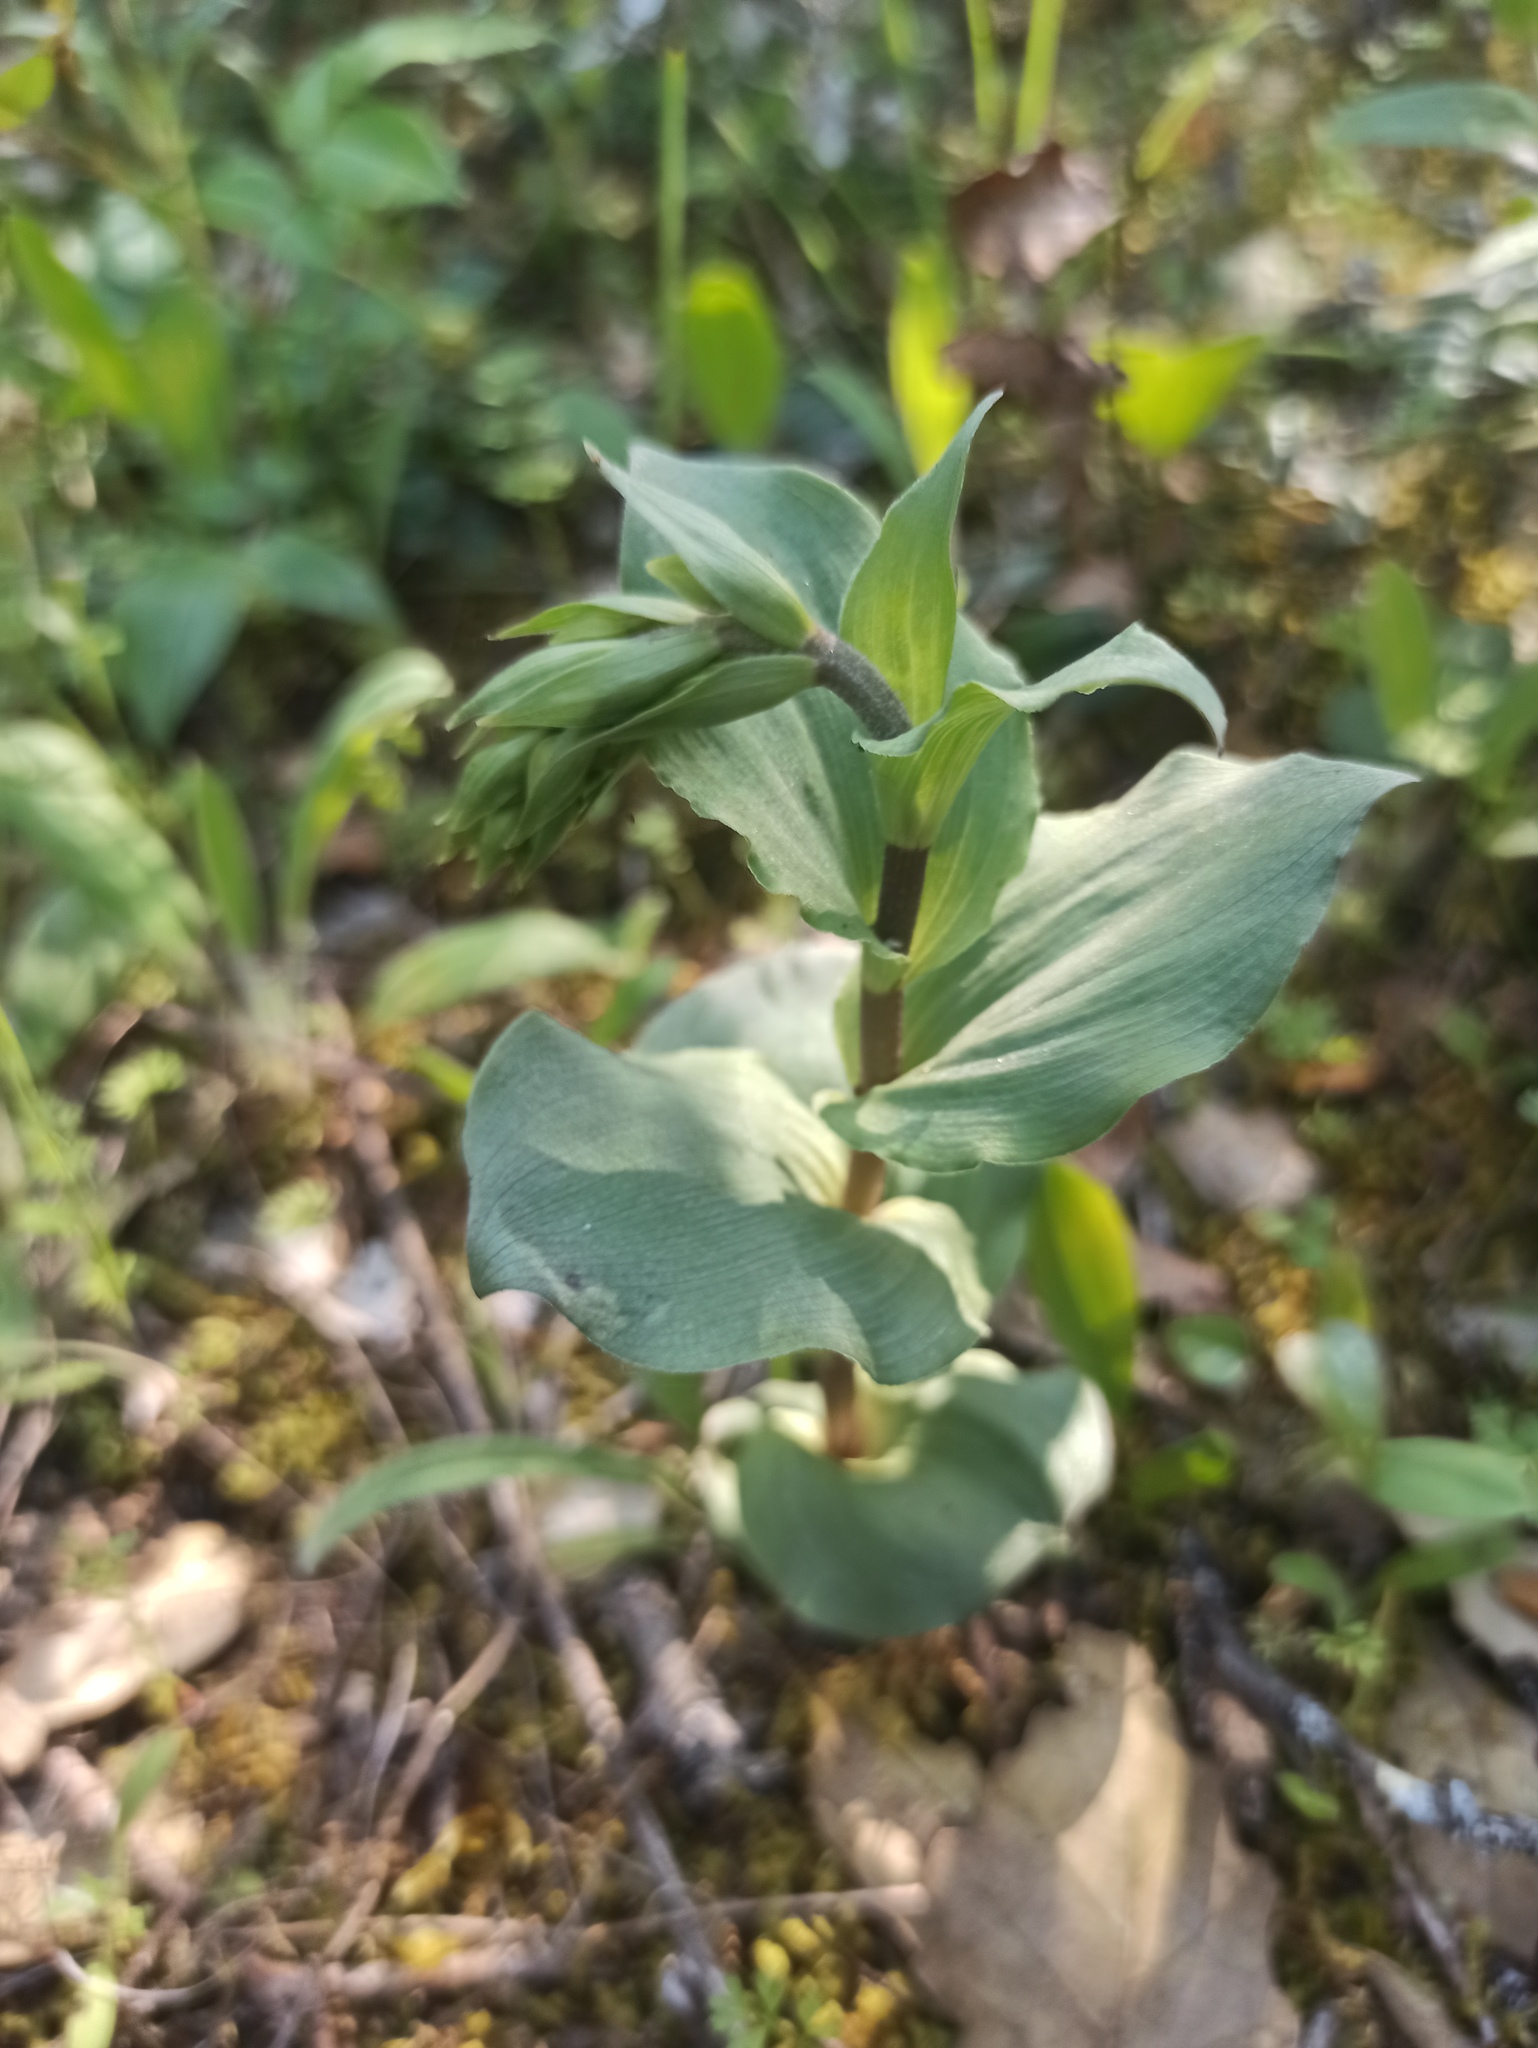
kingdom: Plantae
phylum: Tracheophyta
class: Liliopsida
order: Asparagales
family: Orchidaceae
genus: Epipactis
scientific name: Epipactis helleborine
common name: Broad-leaved helleborine
